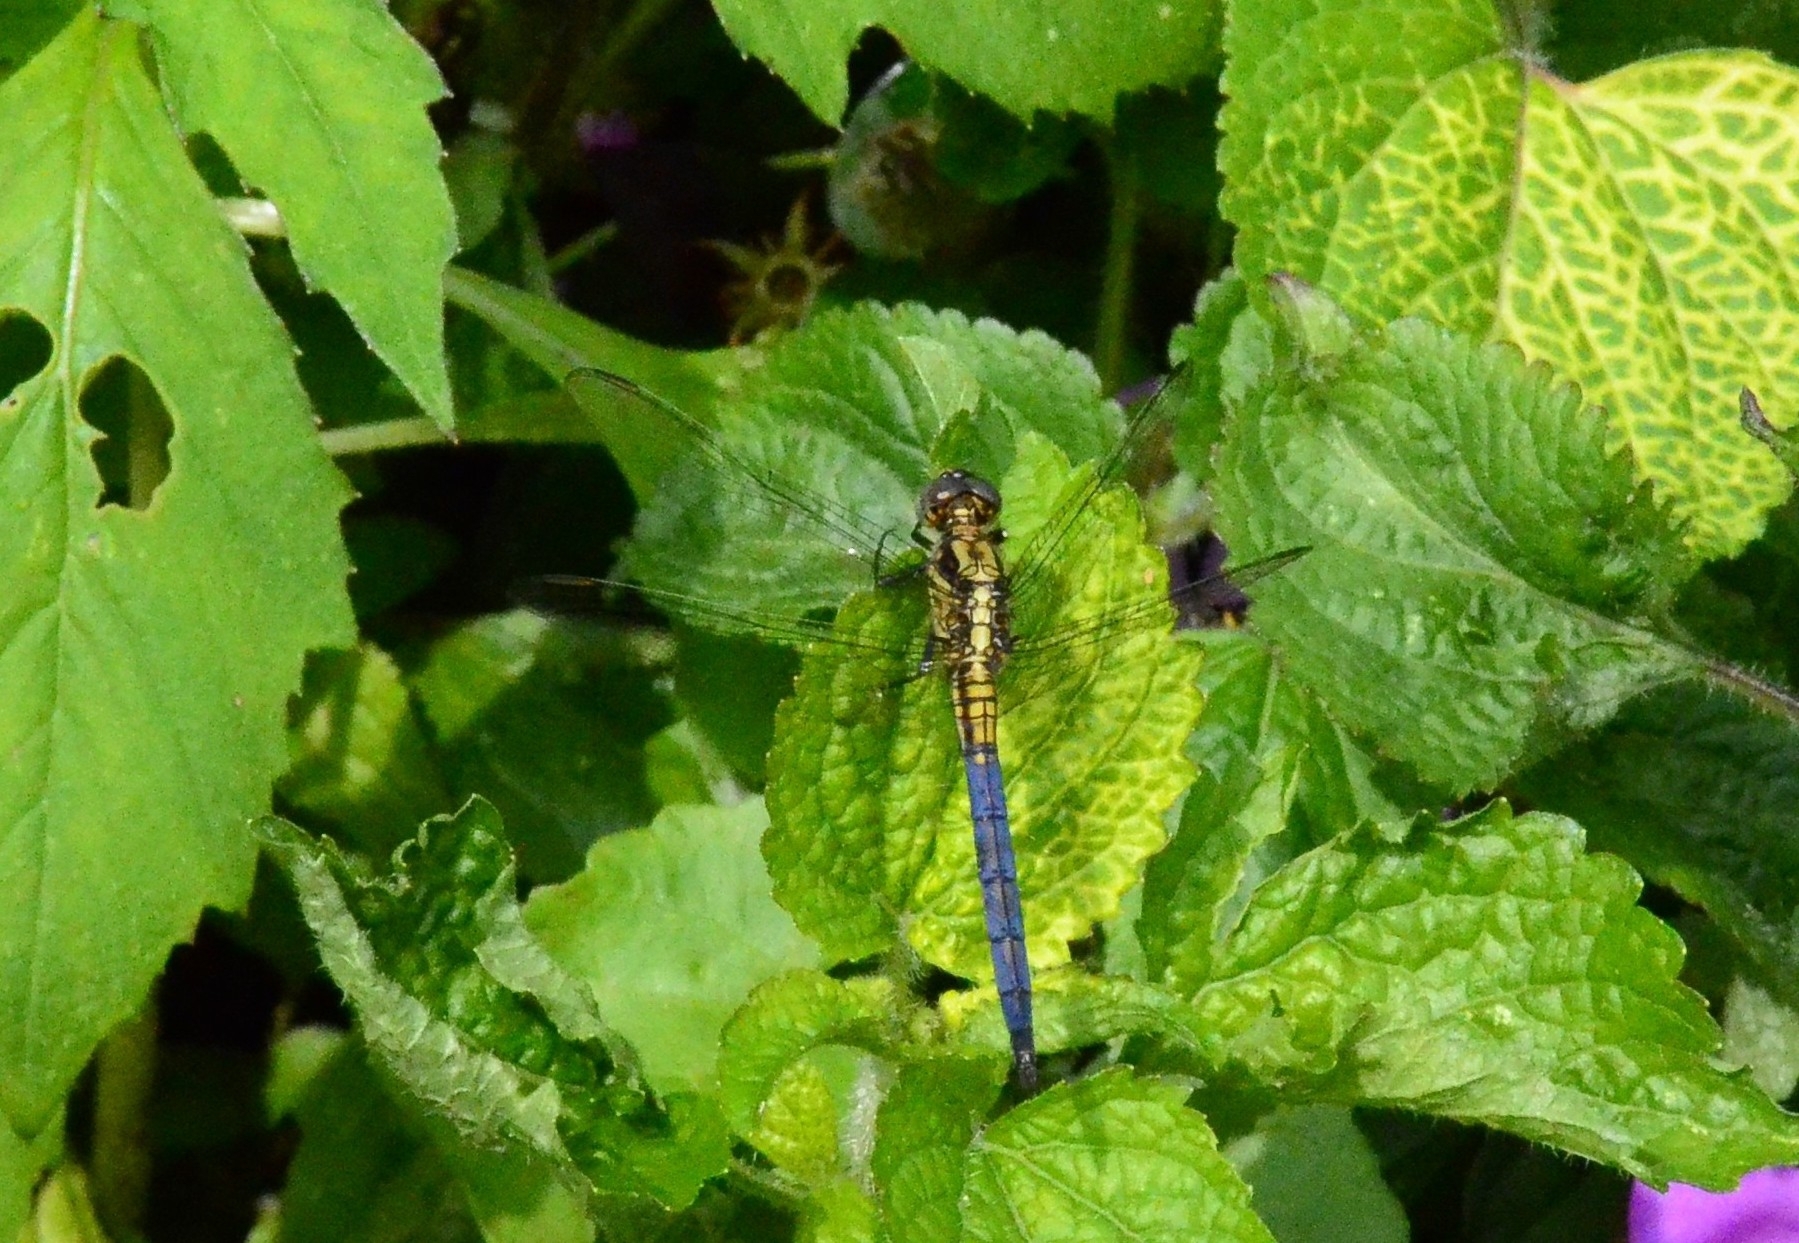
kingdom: Animalia
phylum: Arthropoda
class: Insecta
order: Odonata
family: Libellulidae
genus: Orthetrum
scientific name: Orthetrum luzonicum
